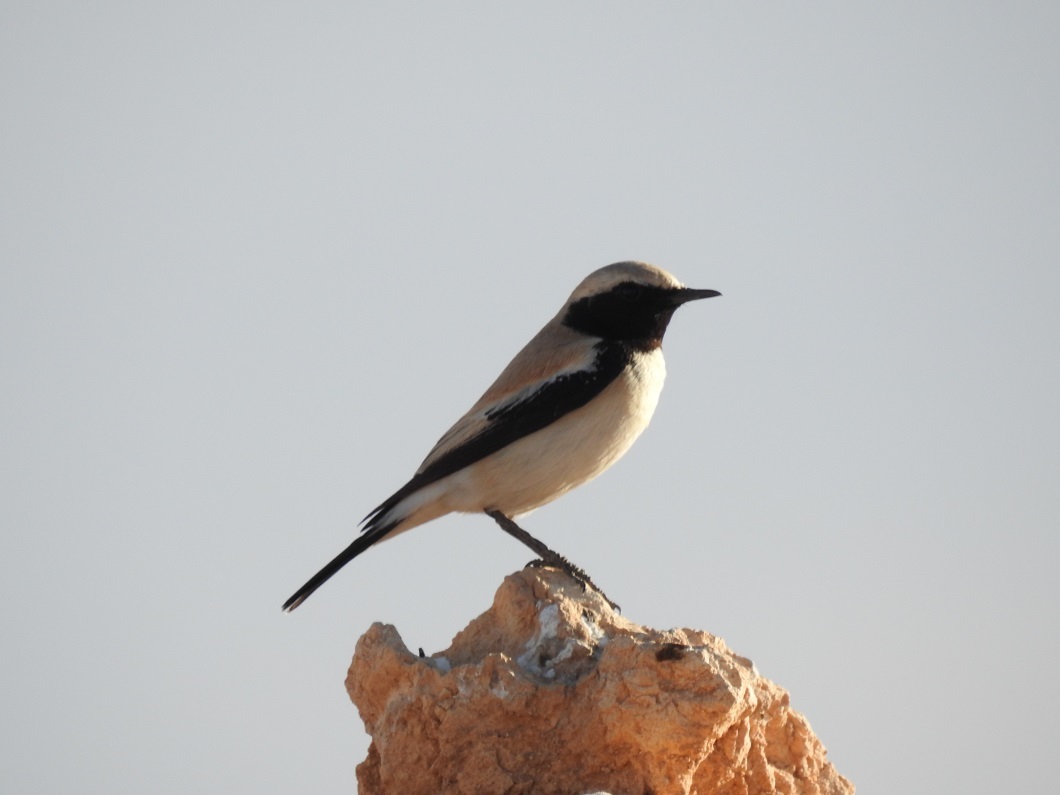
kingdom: Animalia
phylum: Chordata
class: Aves
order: Passeriformes
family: Muscicapidae
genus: Oenanthe
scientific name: Oenanthe deserti
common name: Desert wheatear
